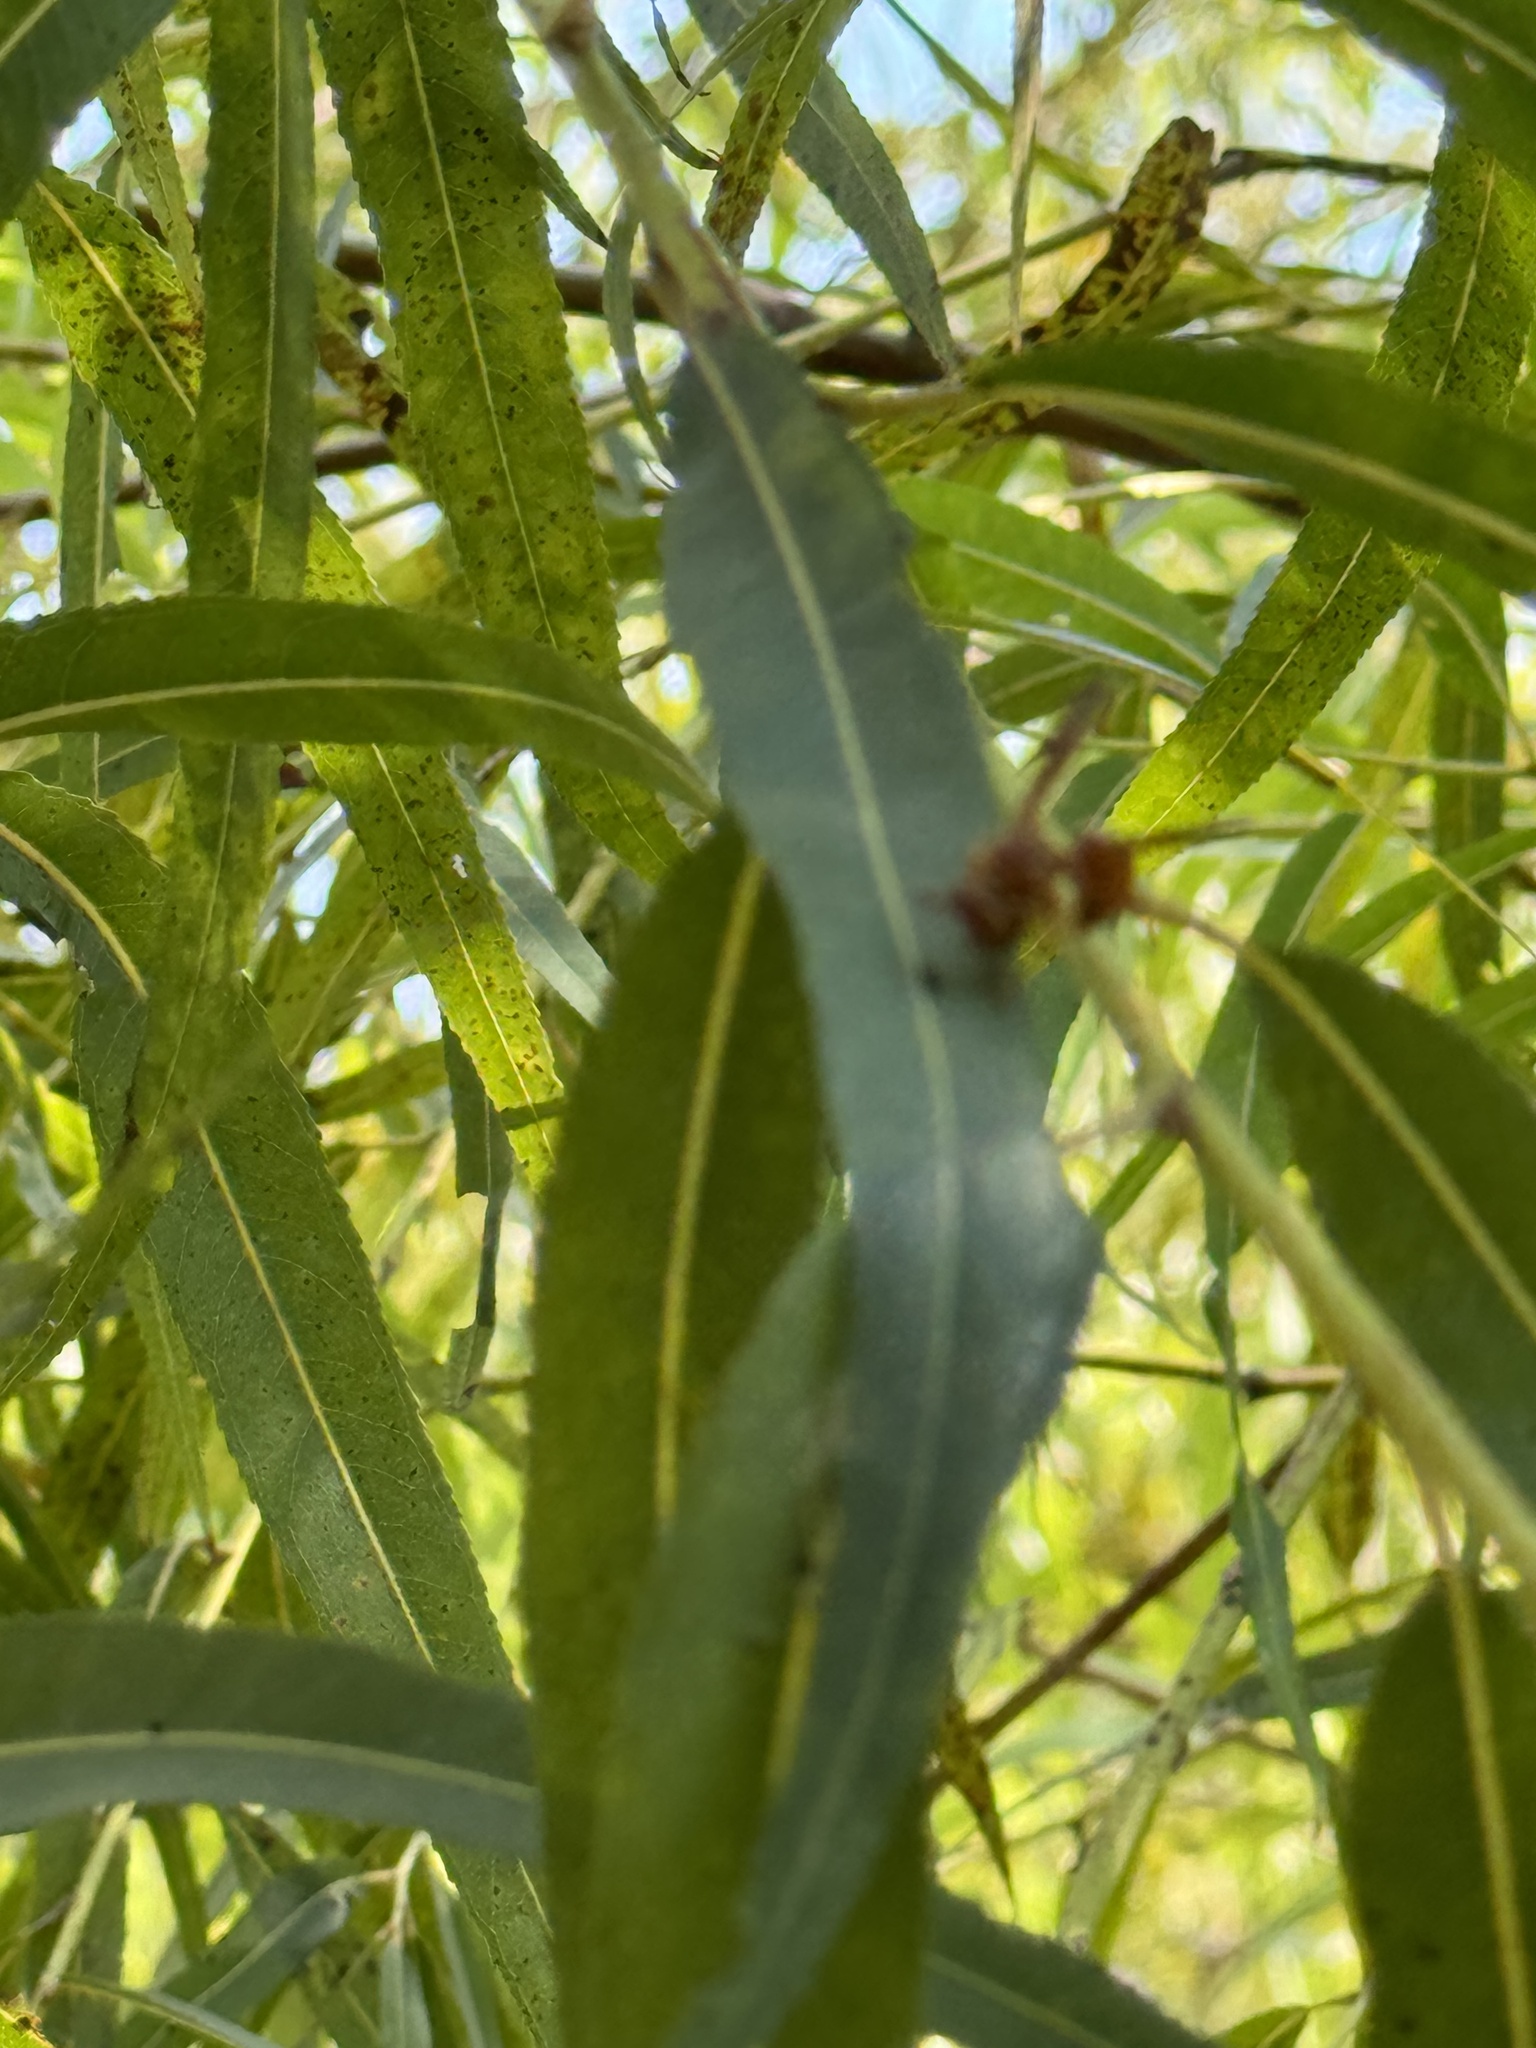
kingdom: Animalia
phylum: Arthropoda
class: Insecta
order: Hymenoptera
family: Eumenidae
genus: Polistes
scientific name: Polistes exclamans
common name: Paper wasp
